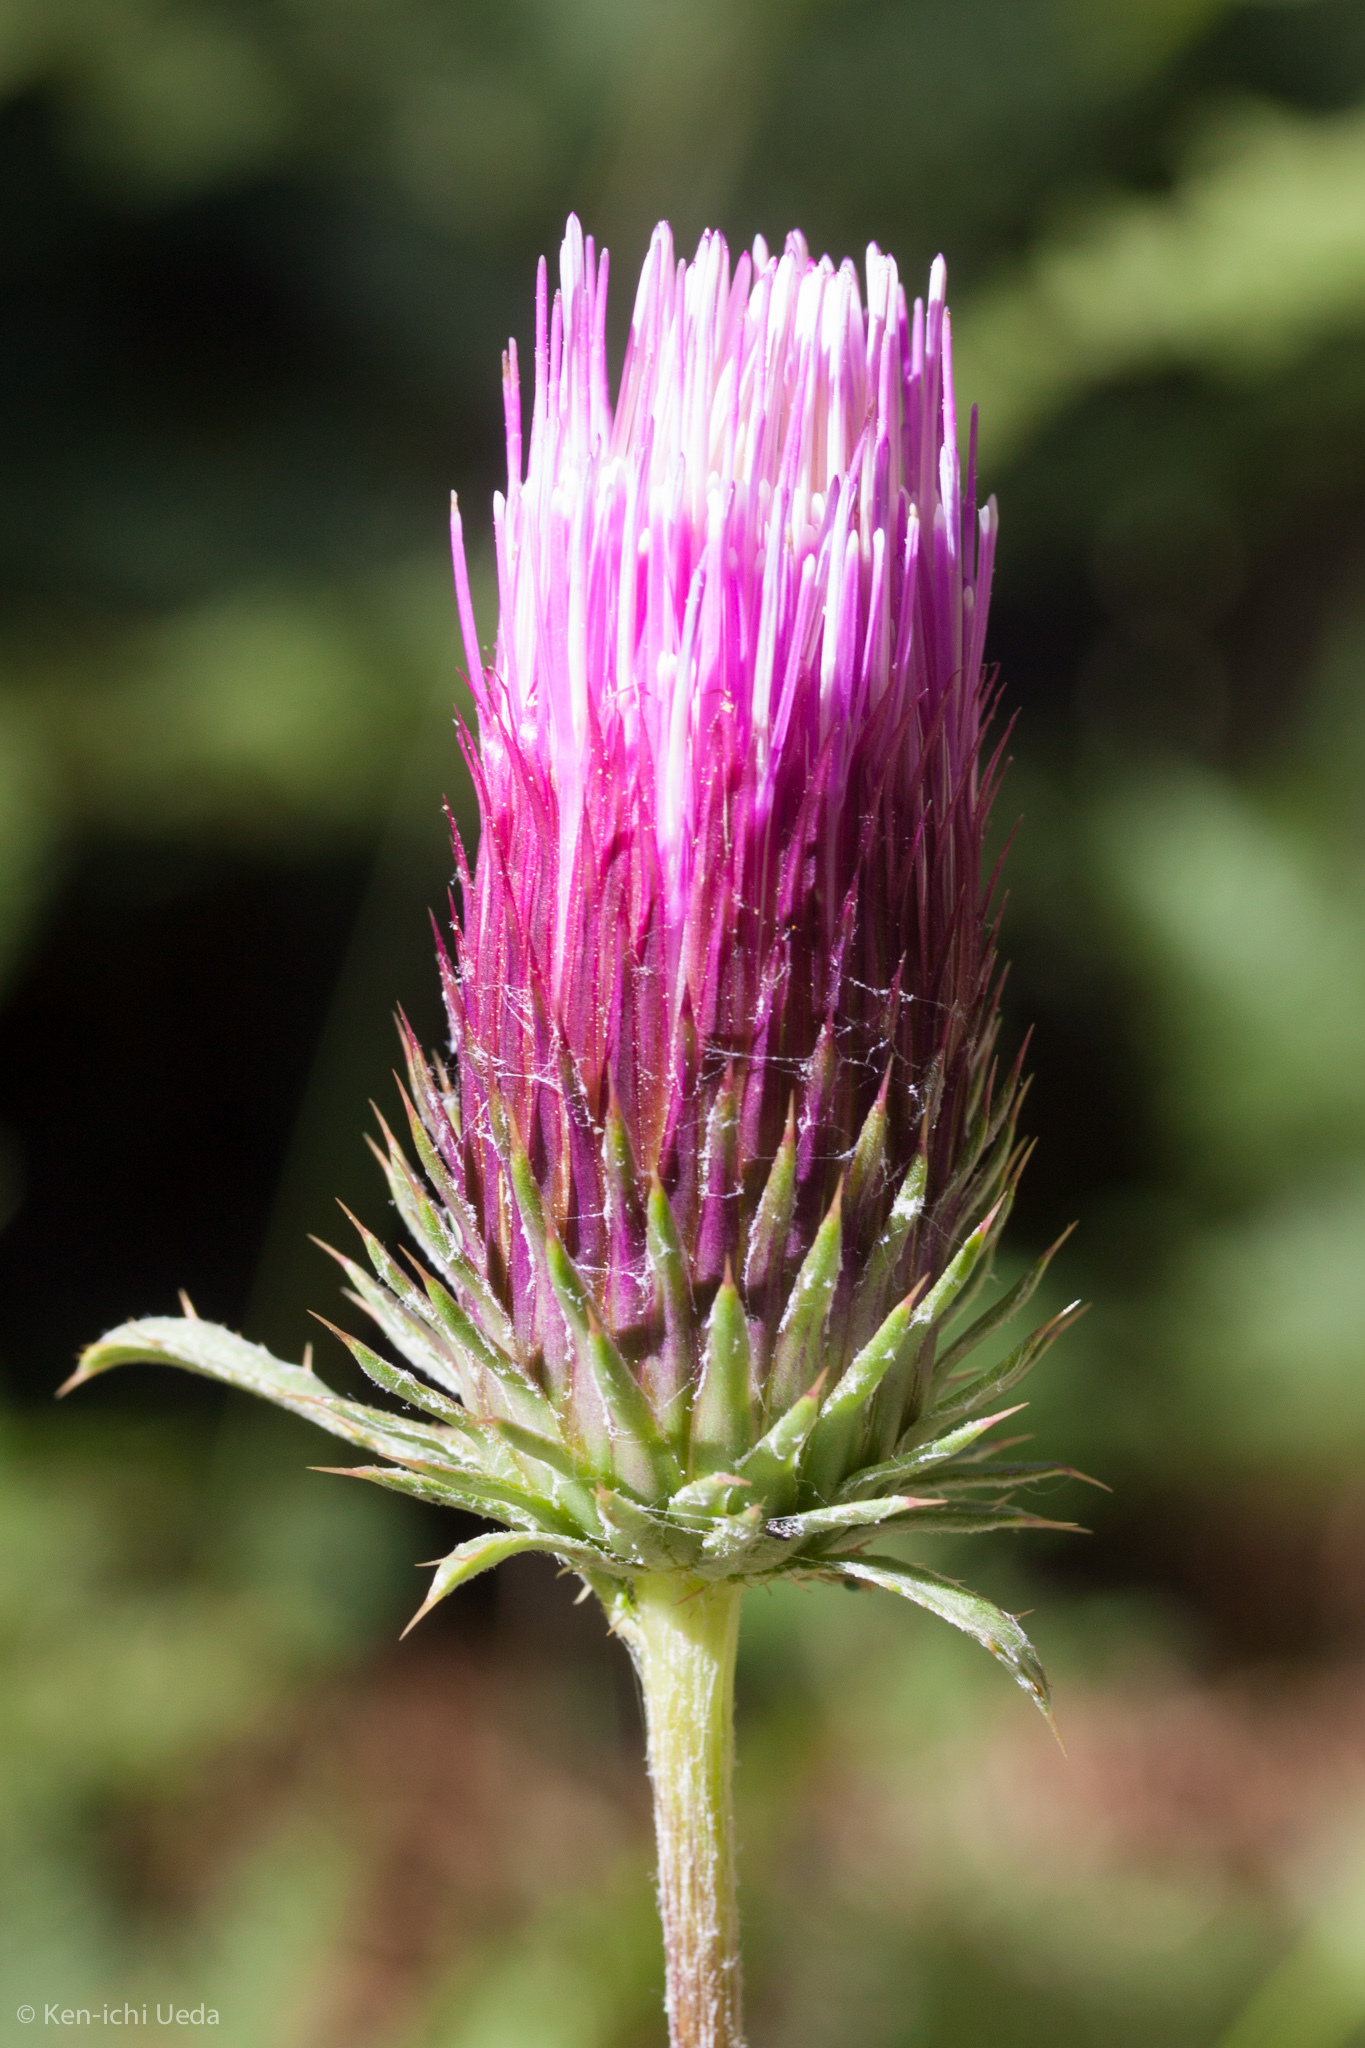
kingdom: Plantae
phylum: Tracheophyta
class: Magnoliopsida
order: Asterales
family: Asteraceae
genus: Cirsium
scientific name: Cirsium andersonii
